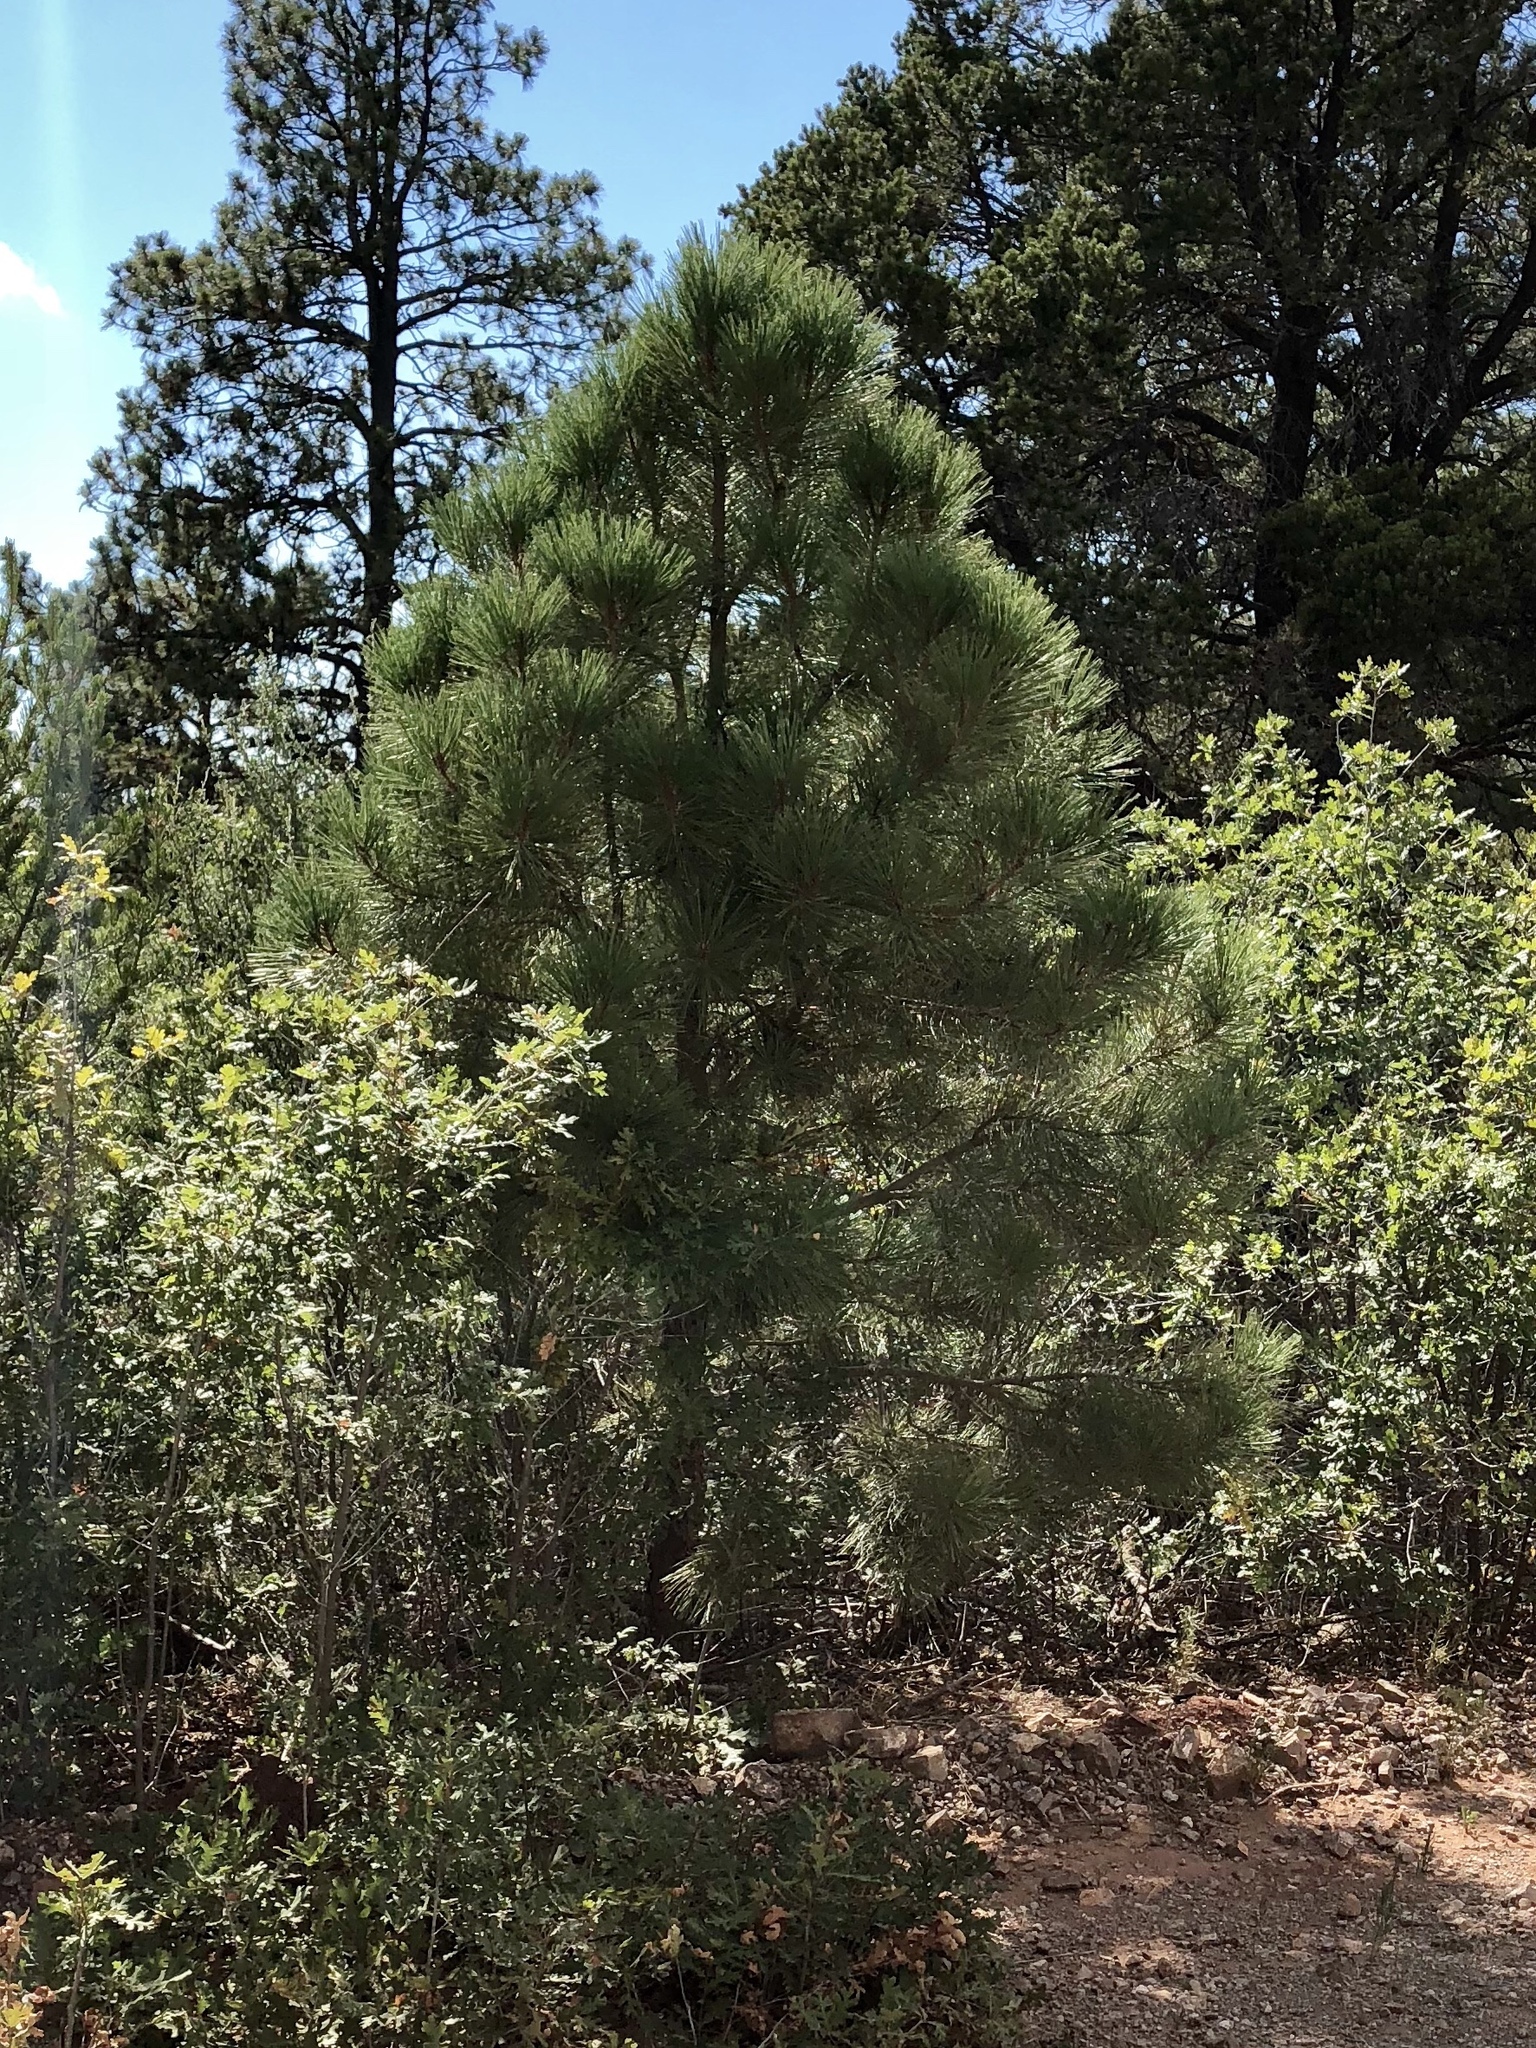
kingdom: Plantae
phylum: Tracheophyta
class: Pinopsida
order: Pinales
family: Pinaceae
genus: Pinus
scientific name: Pinus ponderosa
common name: Western yellow-pine
